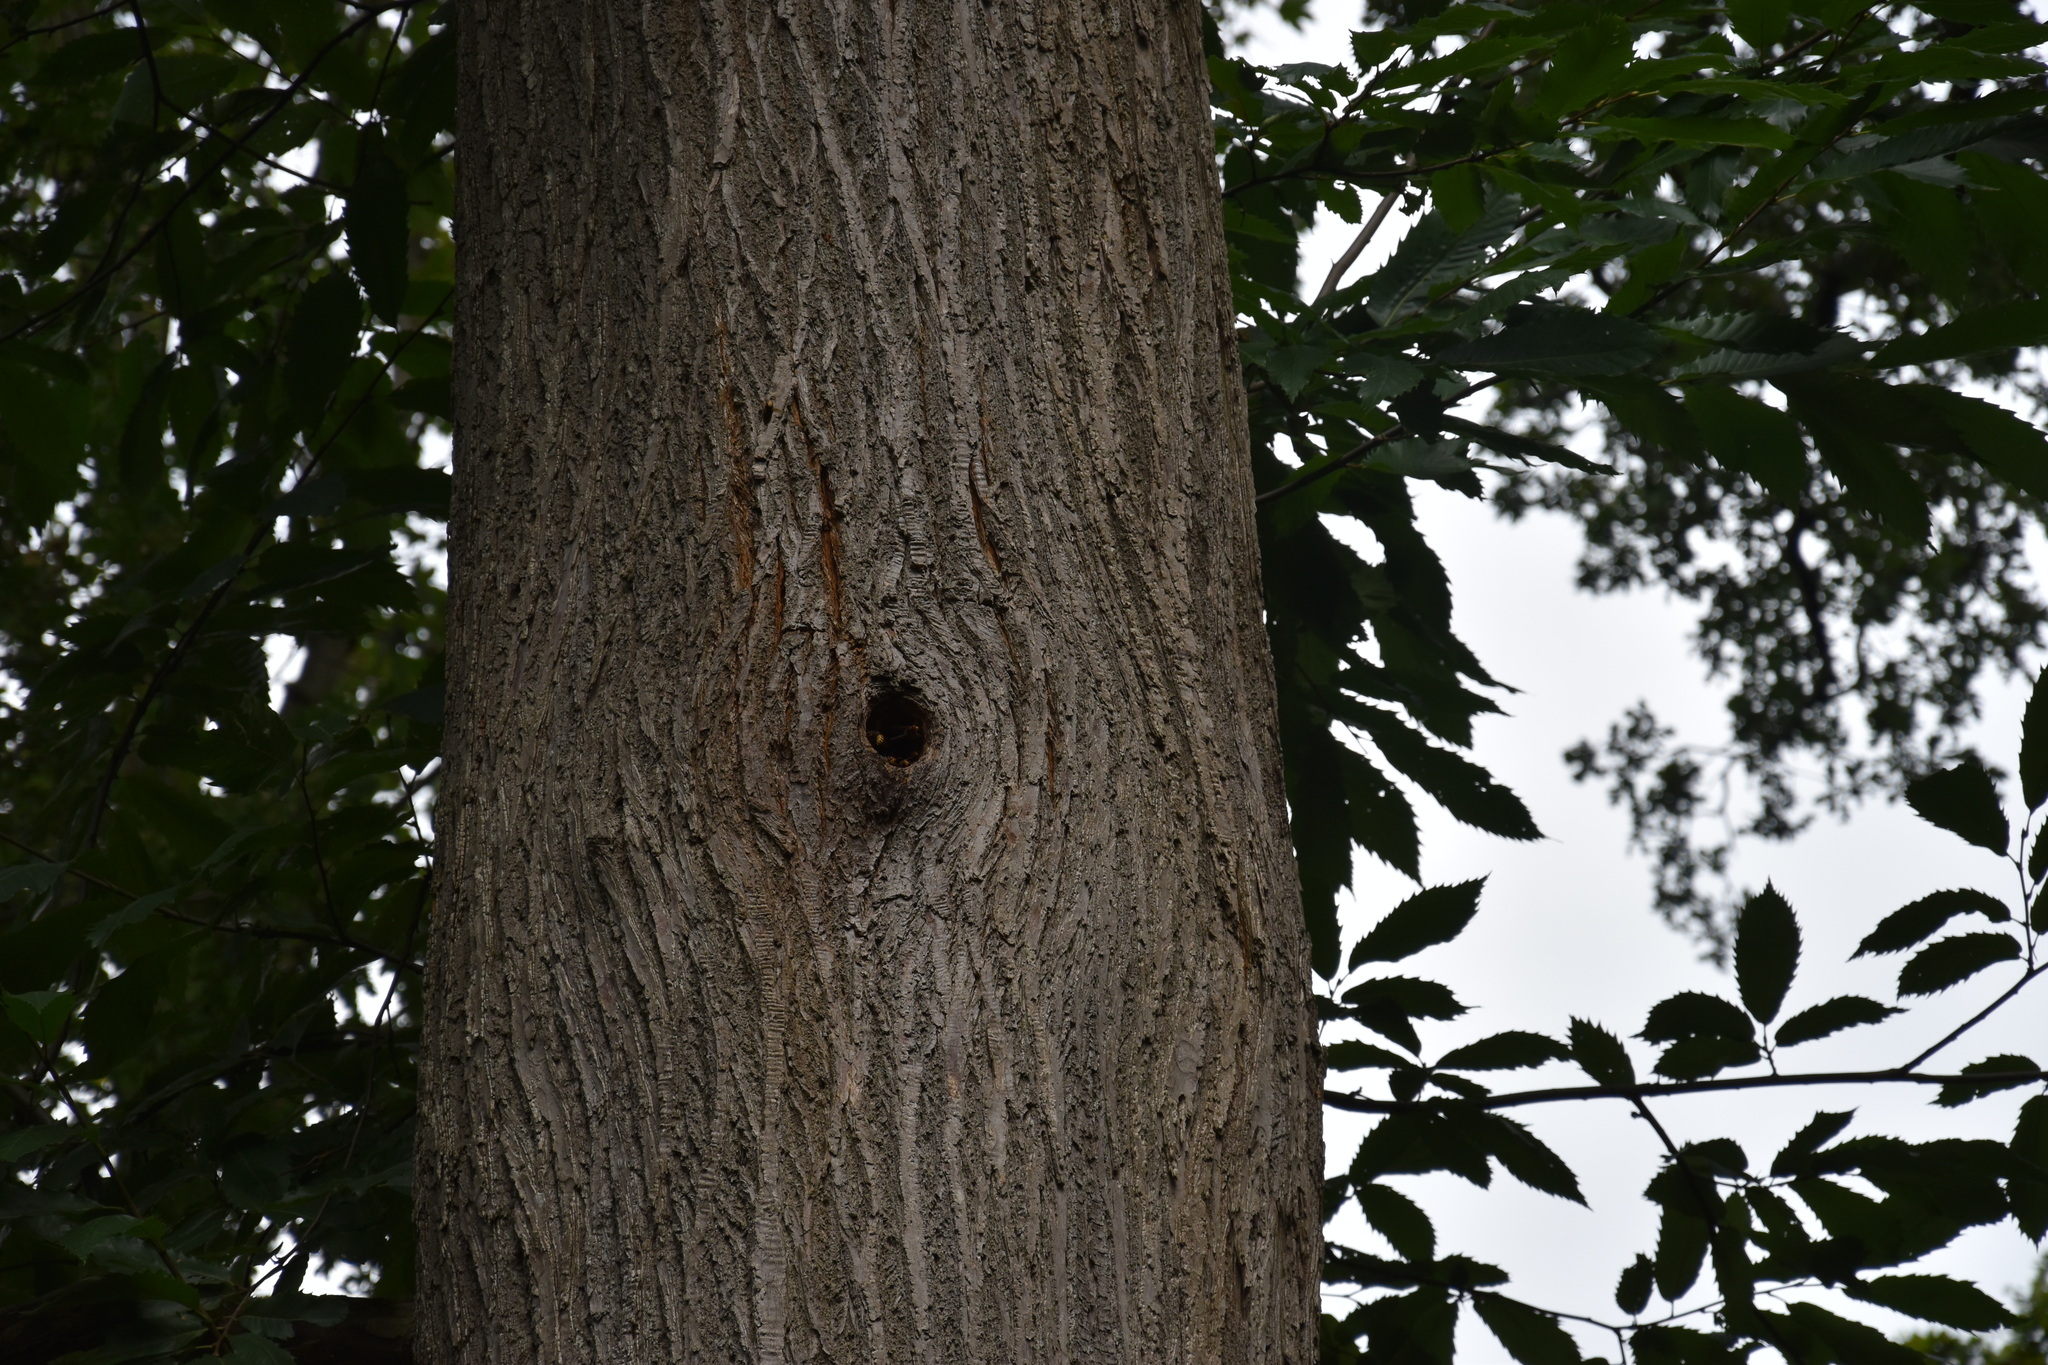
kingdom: Animalia
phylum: Arthropoda
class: Insecta
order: Hymenoptera
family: Vespidae
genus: Vespa
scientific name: Vespa crabro
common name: Hornet
